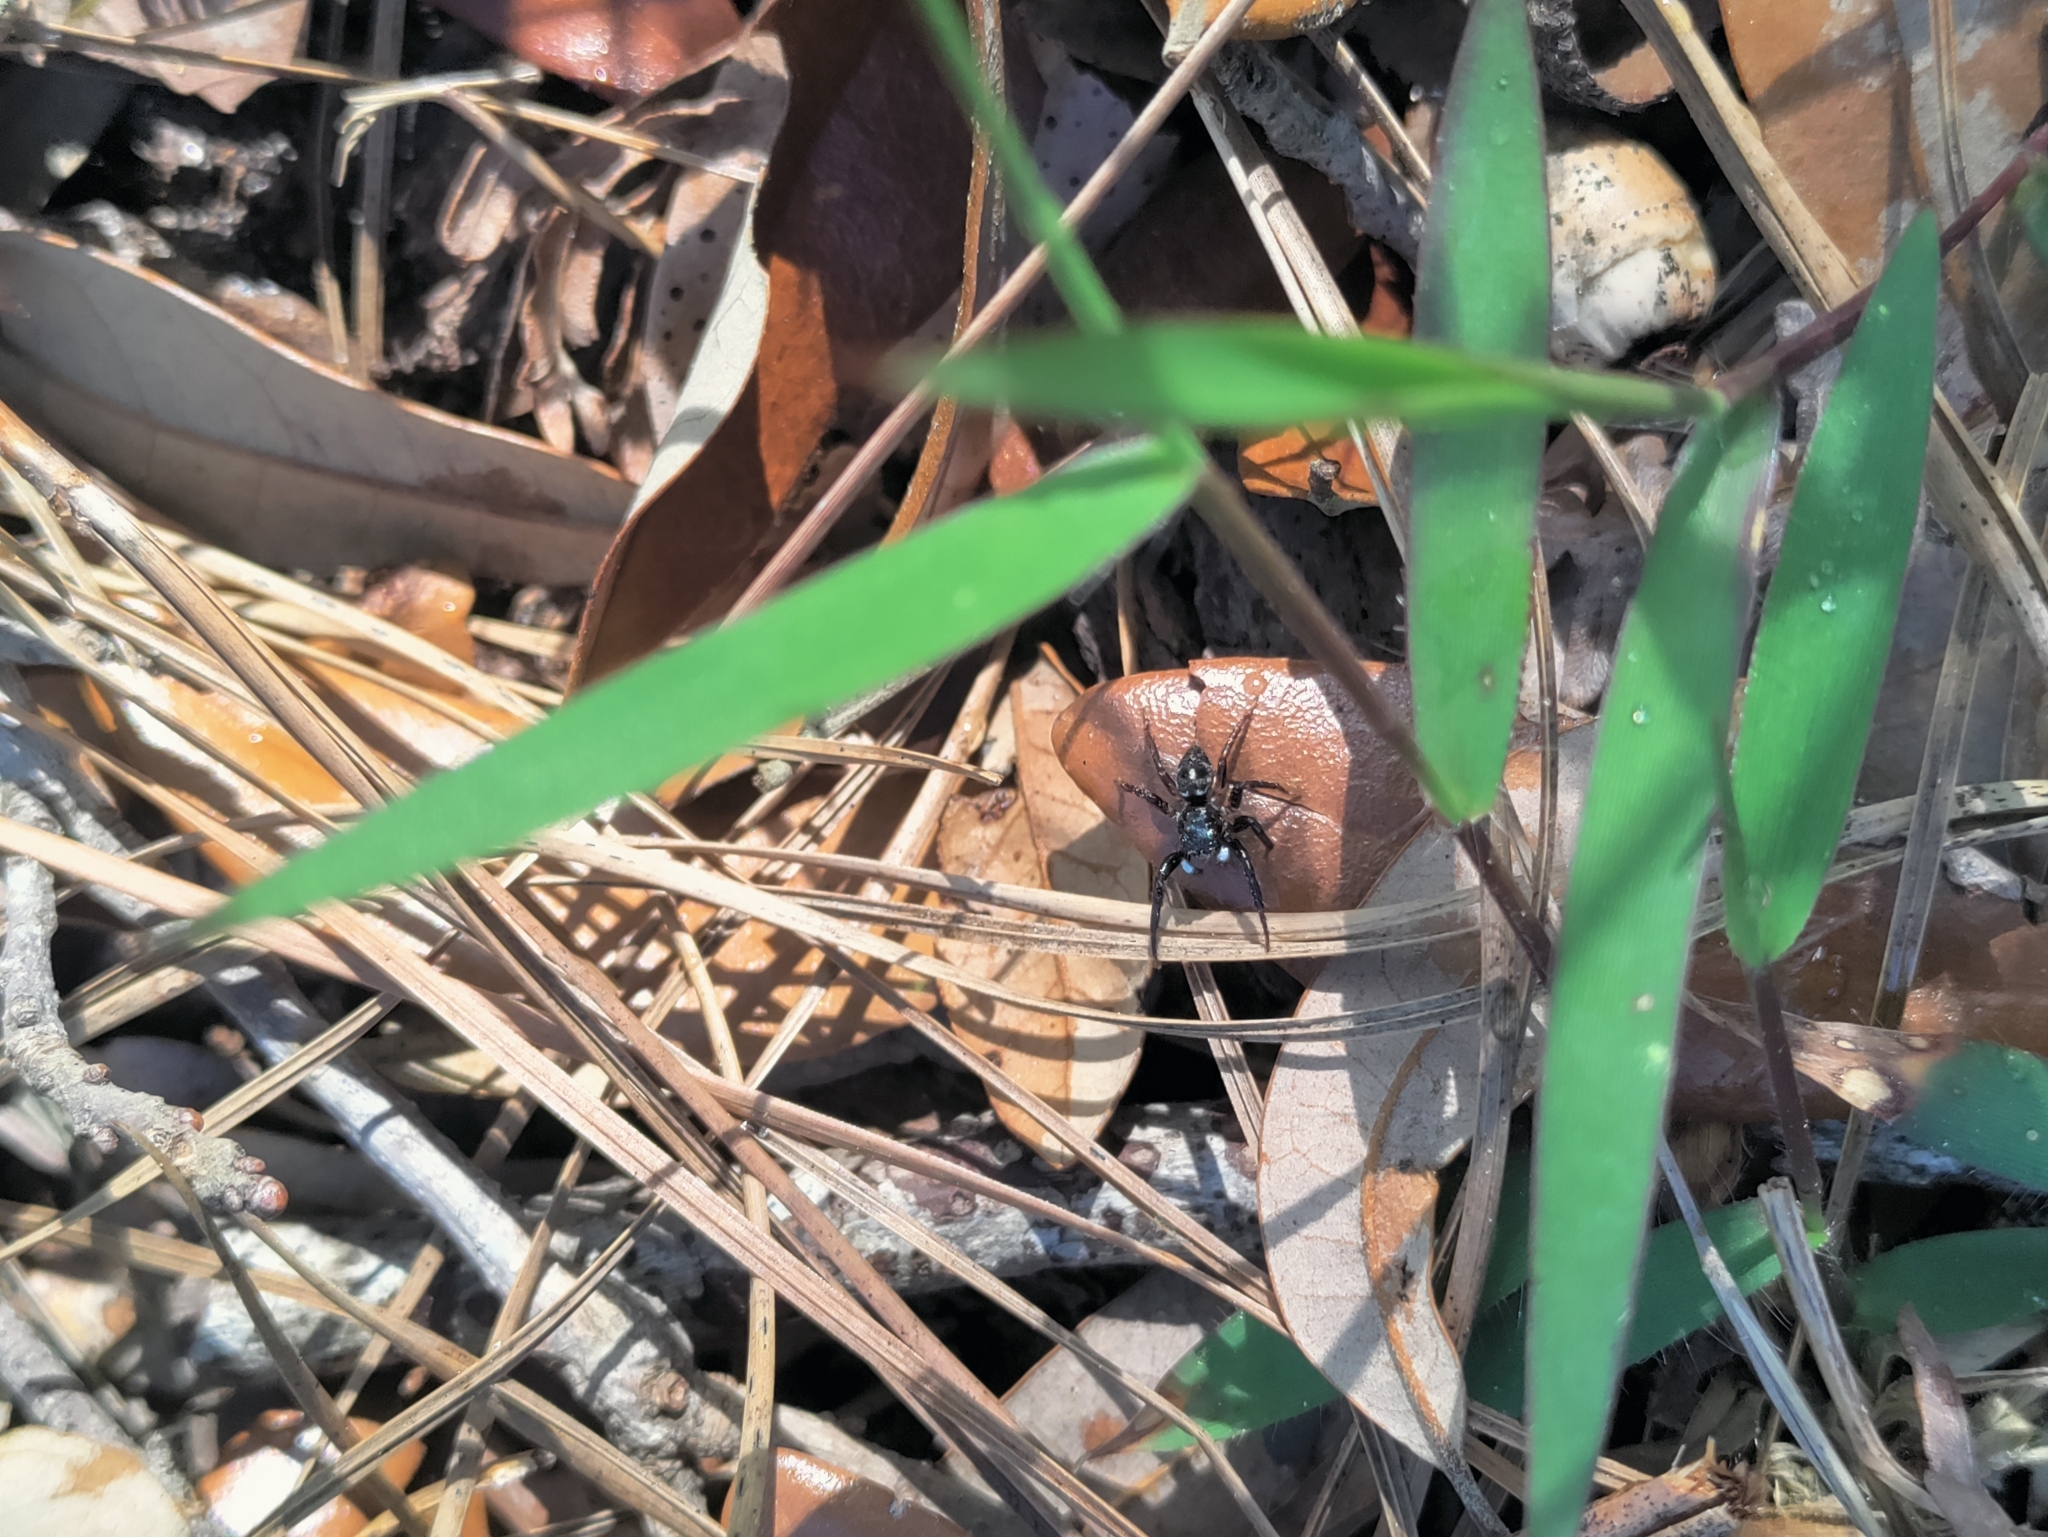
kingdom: Animalia
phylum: Arthropoda
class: Arachnida
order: Araneae
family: Salticidae
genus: Anasaitis
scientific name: Anasaitis canosa
